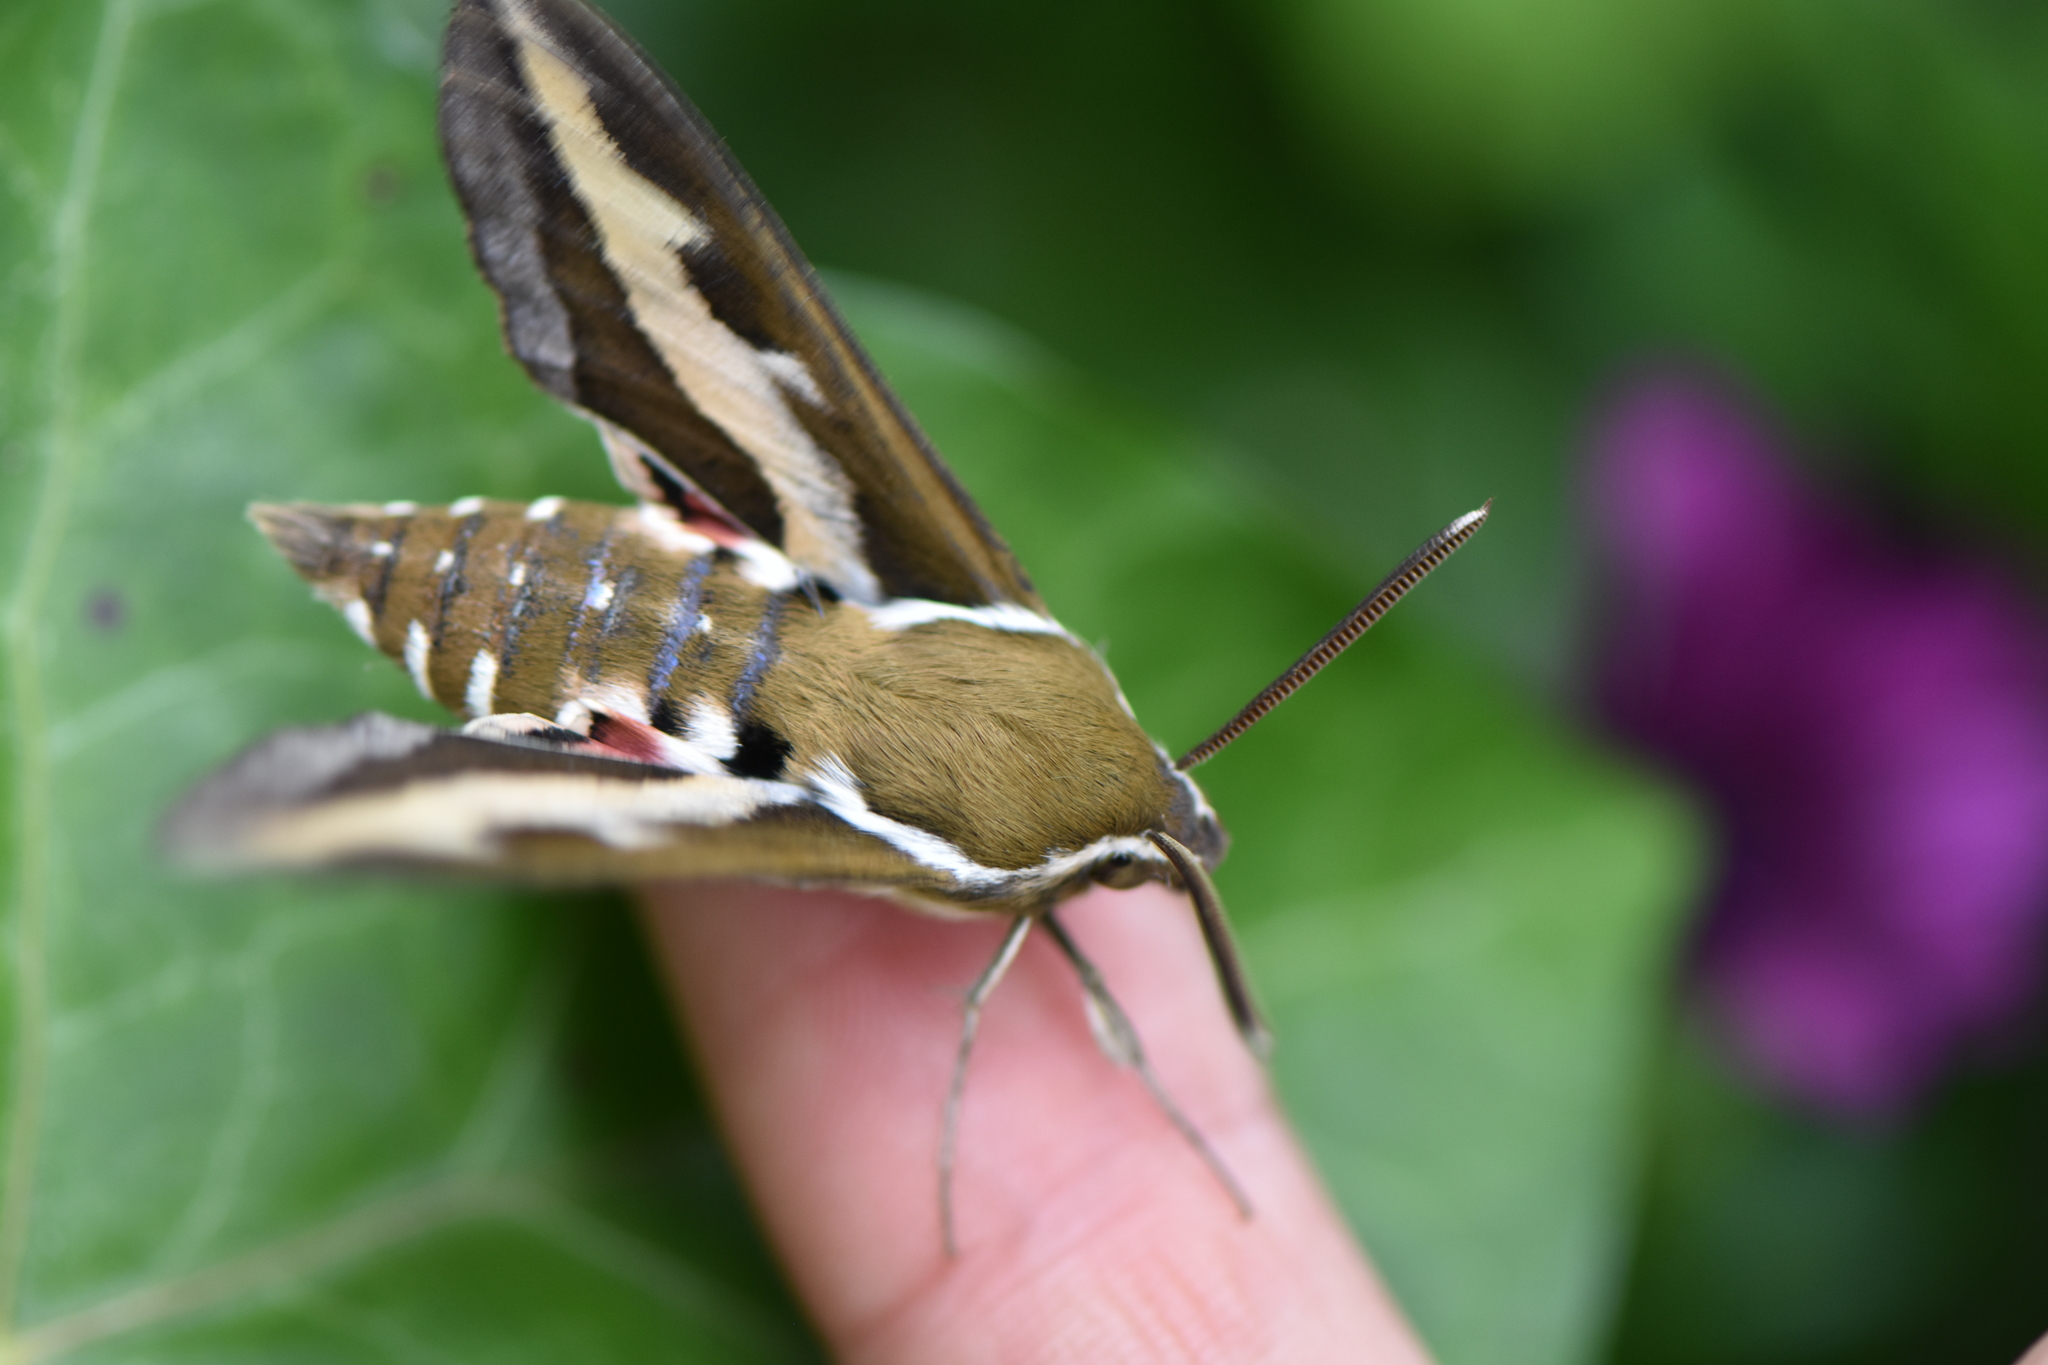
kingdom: Animalia
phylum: Arthropoda
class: Insecta
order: Lepidoptera
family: Sphingidae
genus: Hyles
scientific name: Hyles gallii
